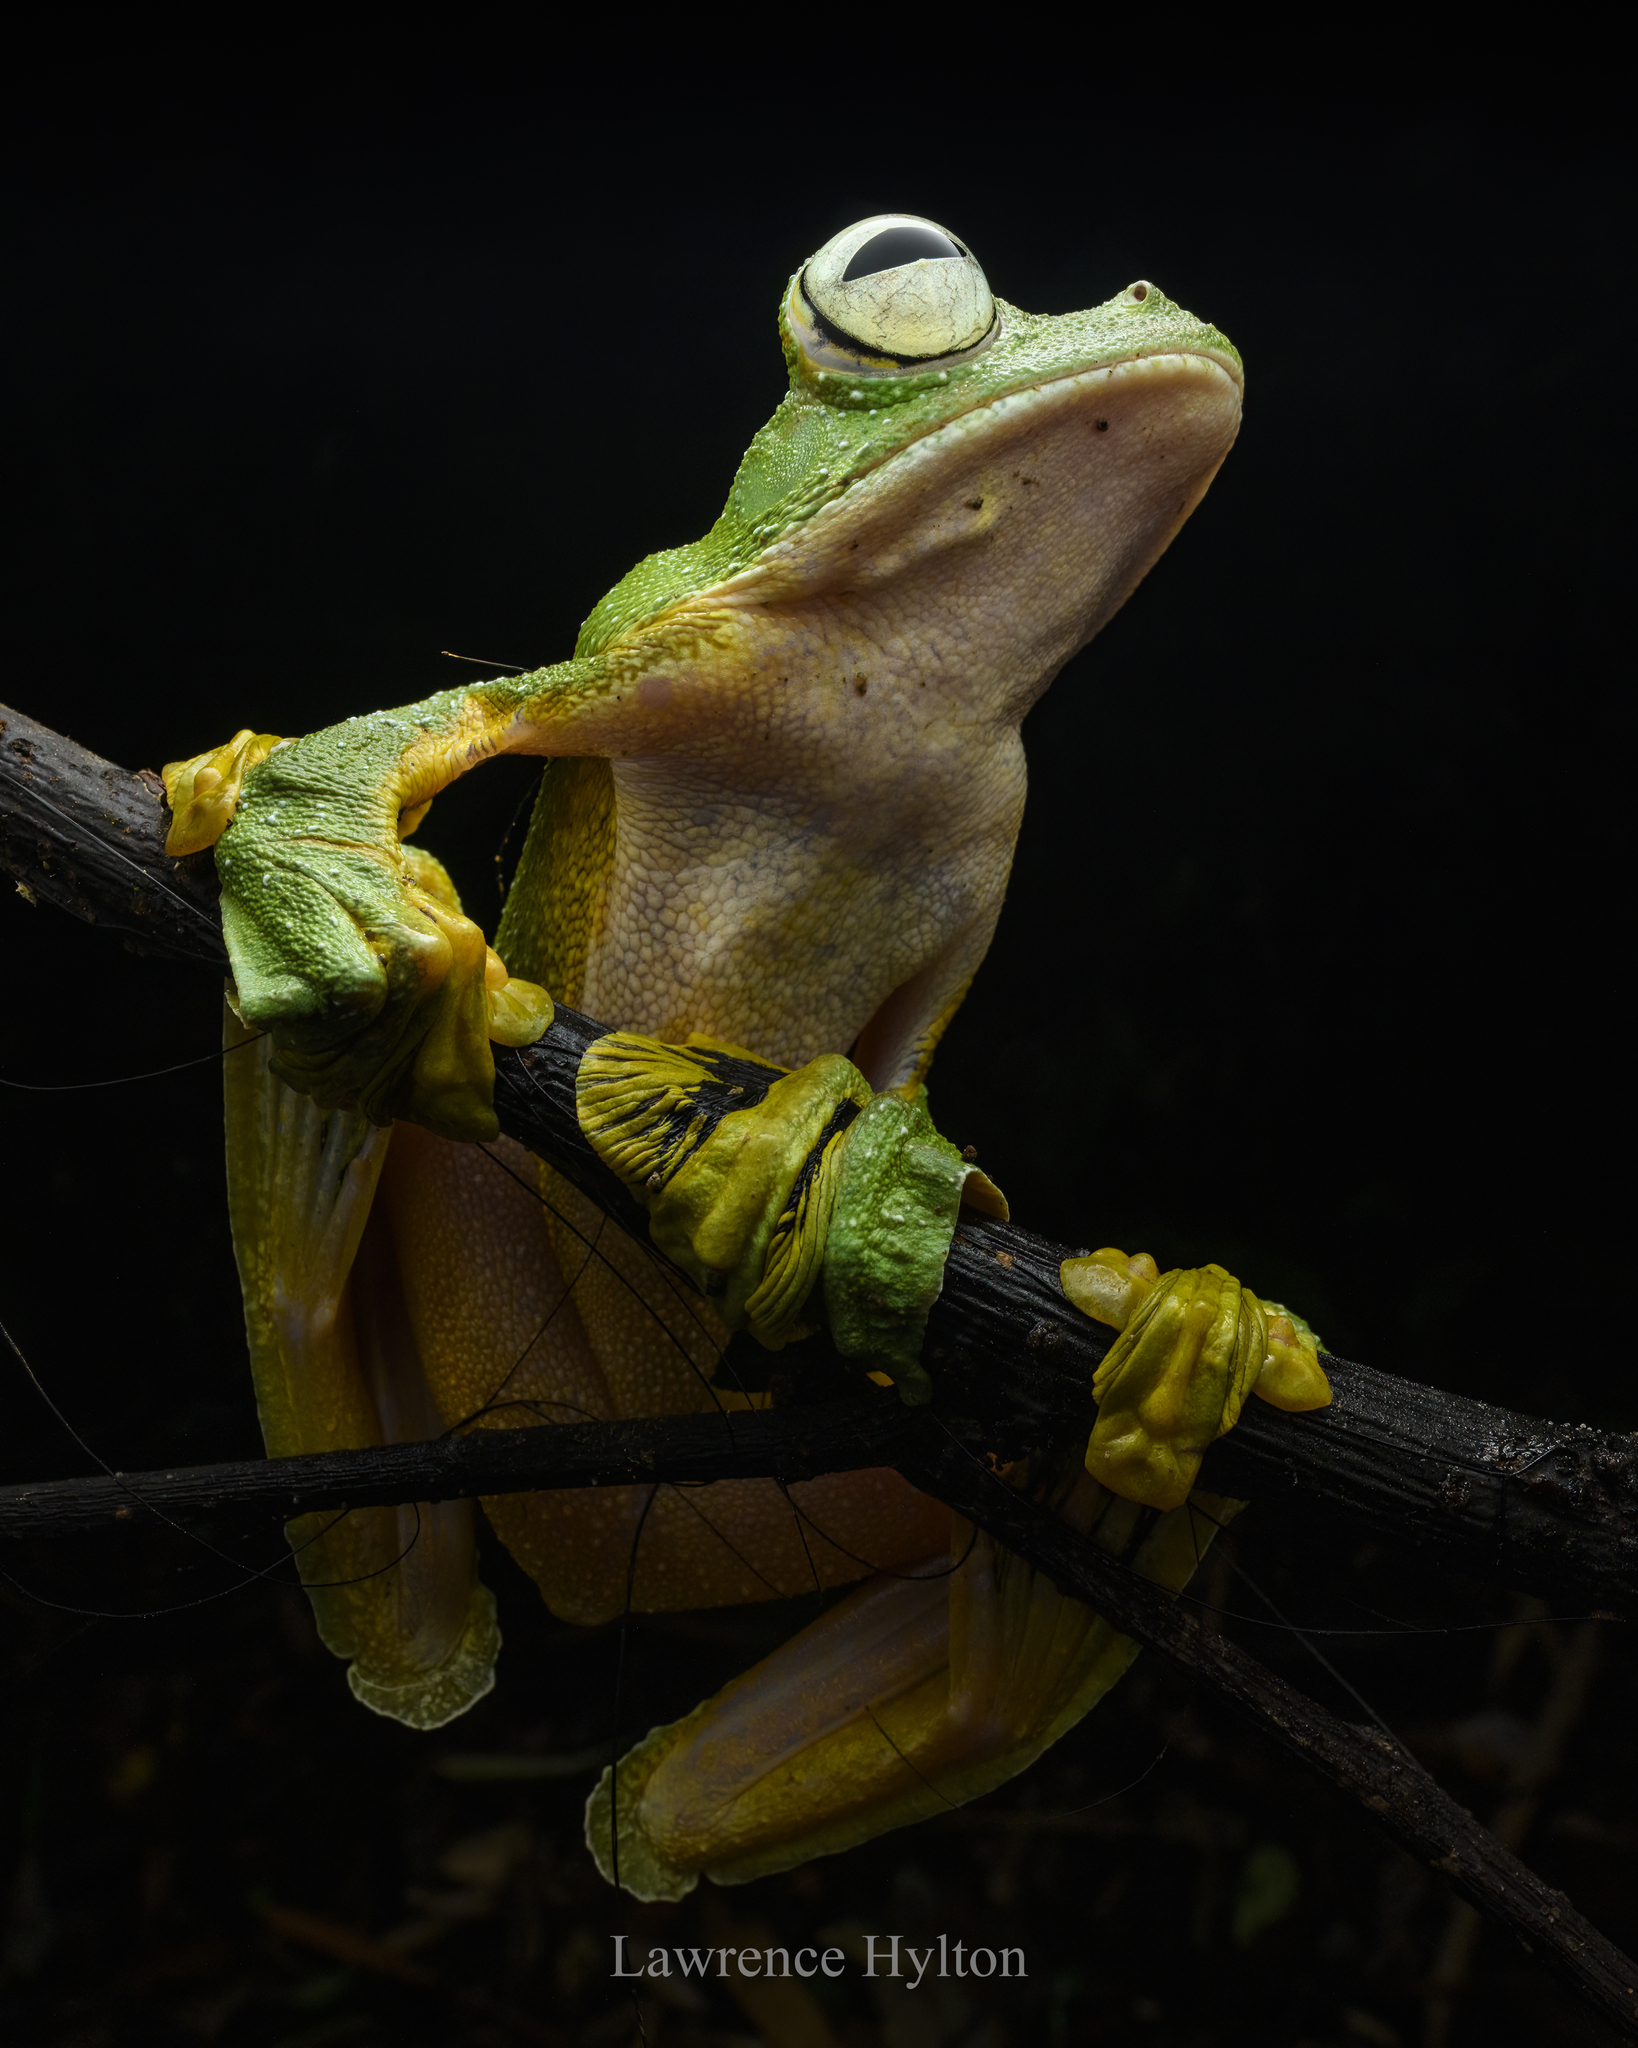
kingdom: Animalia
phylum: Chordata
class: Amphibia
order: Anura
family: Rhacophoridae
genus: Rhacophorus
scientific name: Rhacophorus nigropalmatus
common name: Wallace’s flying frog
